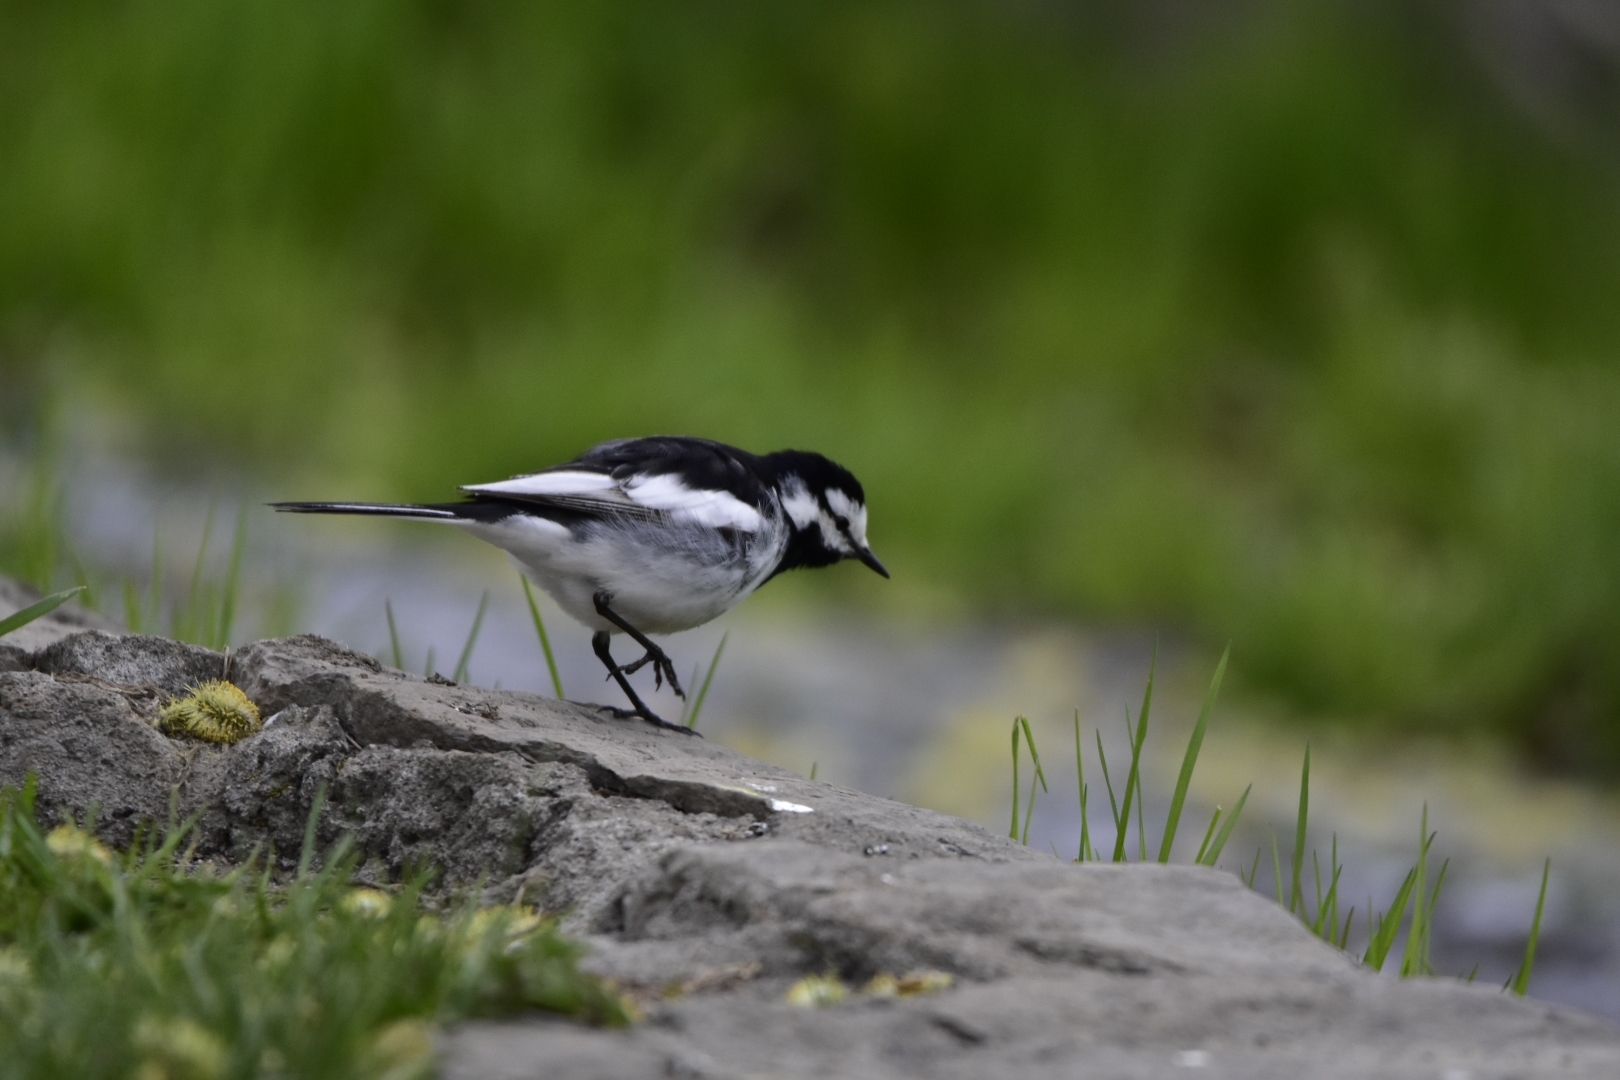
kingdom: Animalia
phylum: Chordata
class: Aves
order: Passeriformes
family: Motacillidae
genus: Motacilla
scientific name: Motacilla alba
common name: White wagtail
